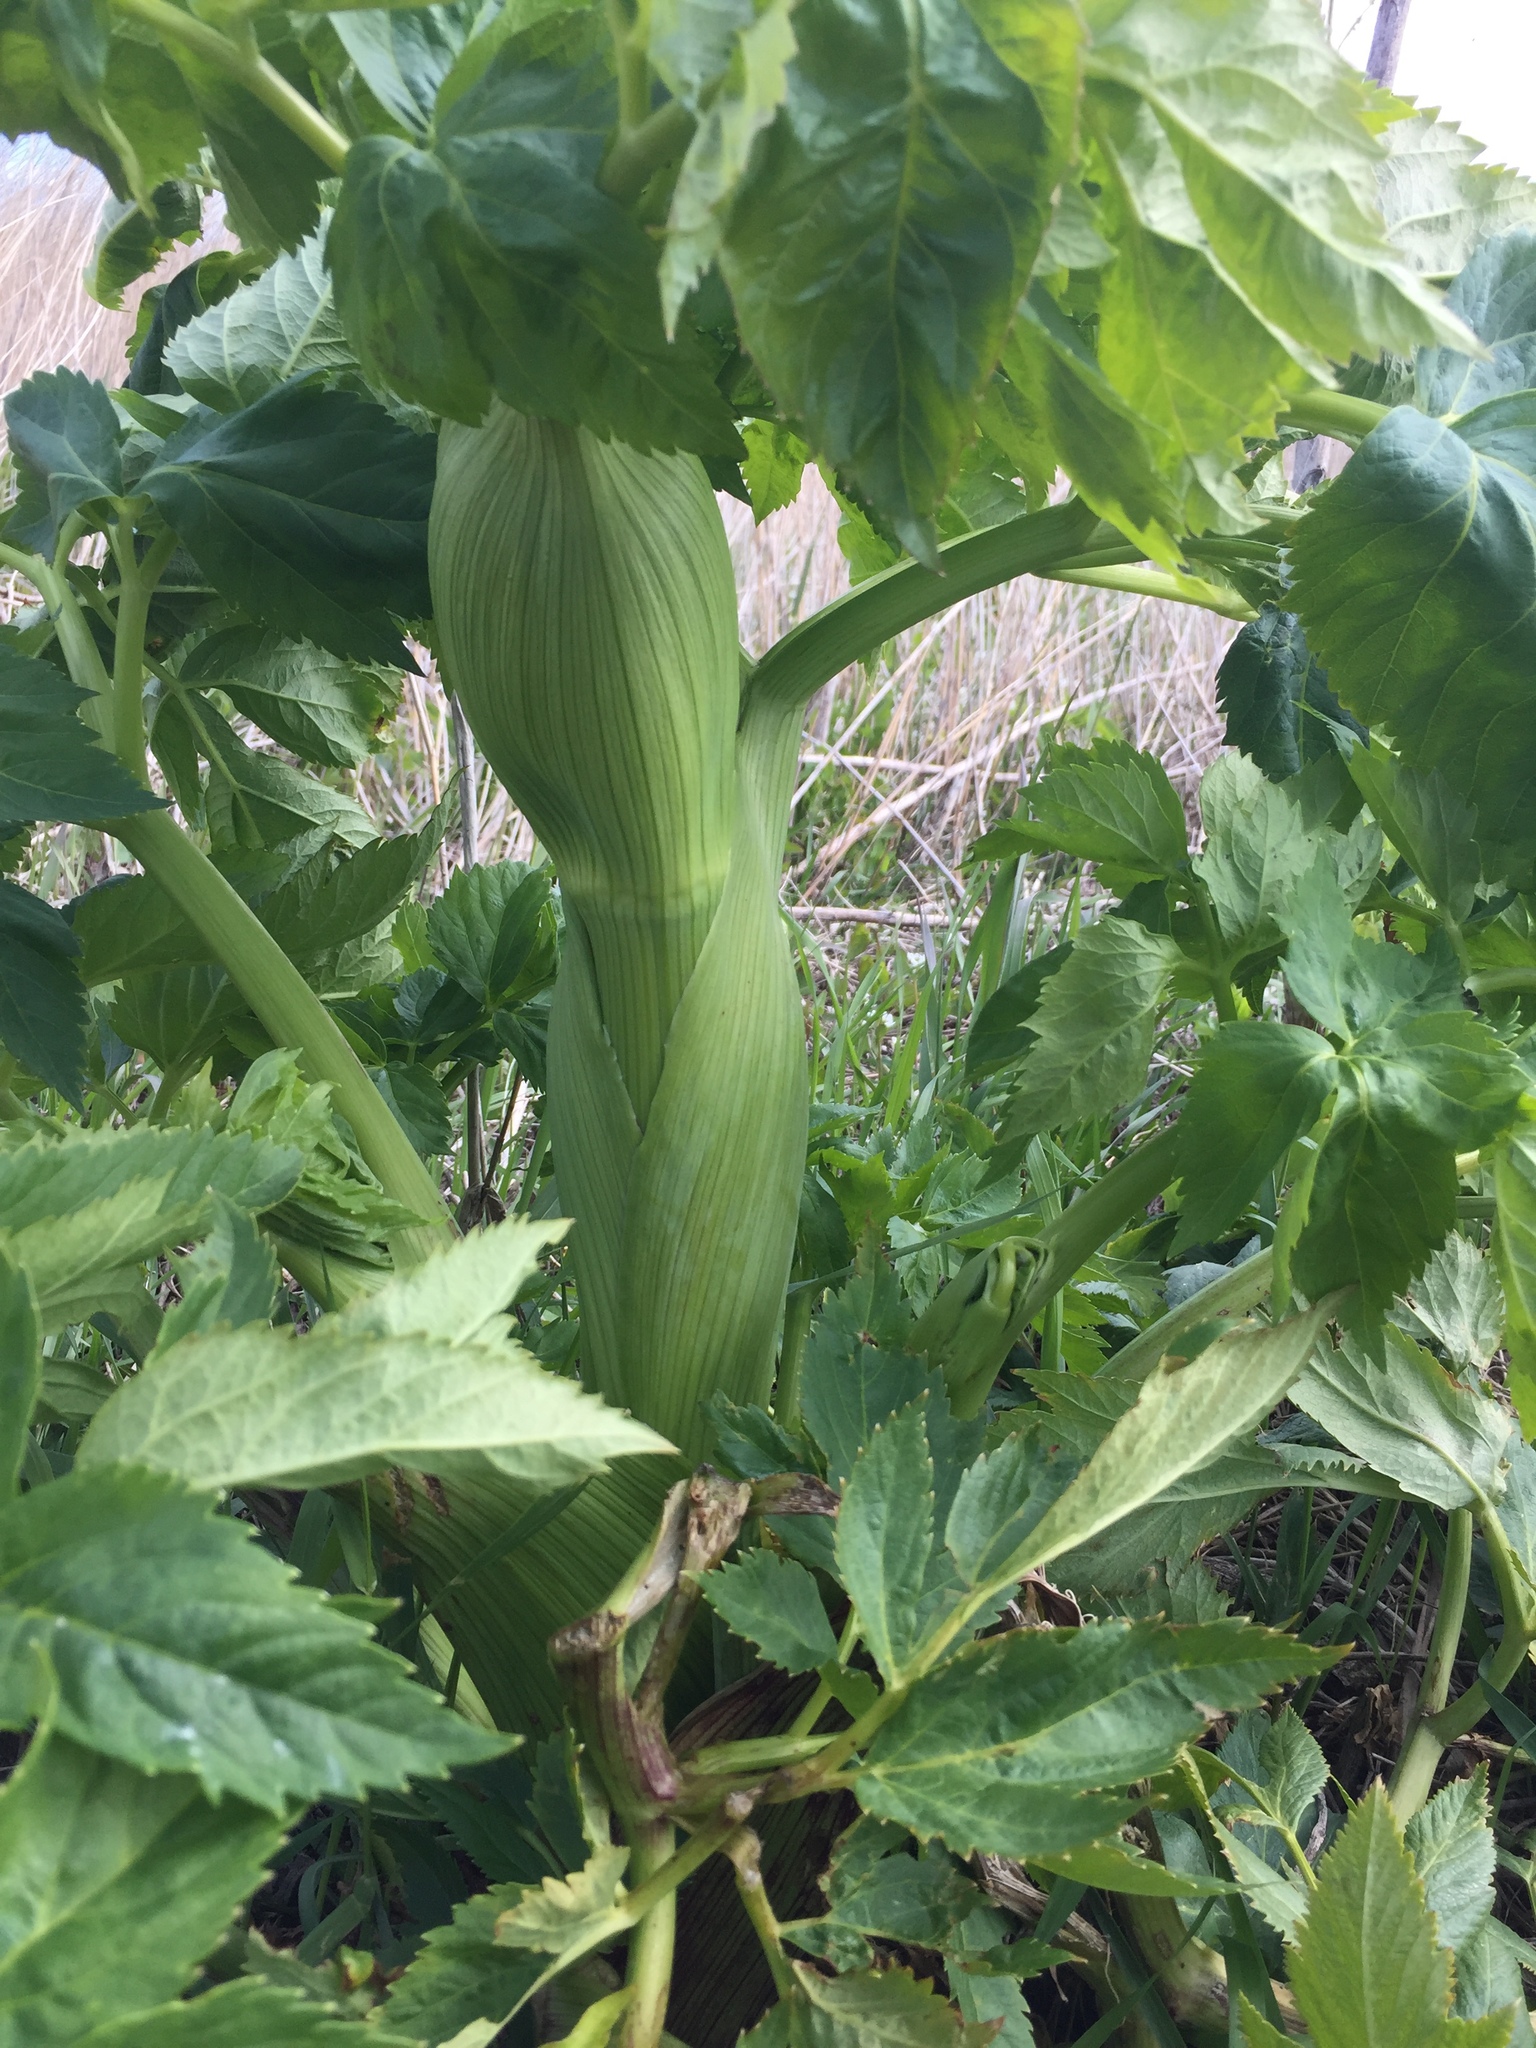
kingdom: Plantae
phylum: Tracheophyta
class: Magnoliopsida
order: Apiales
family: Apiaceae
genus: Angelica
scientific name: Angelica archangelica
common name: Garden angelica
